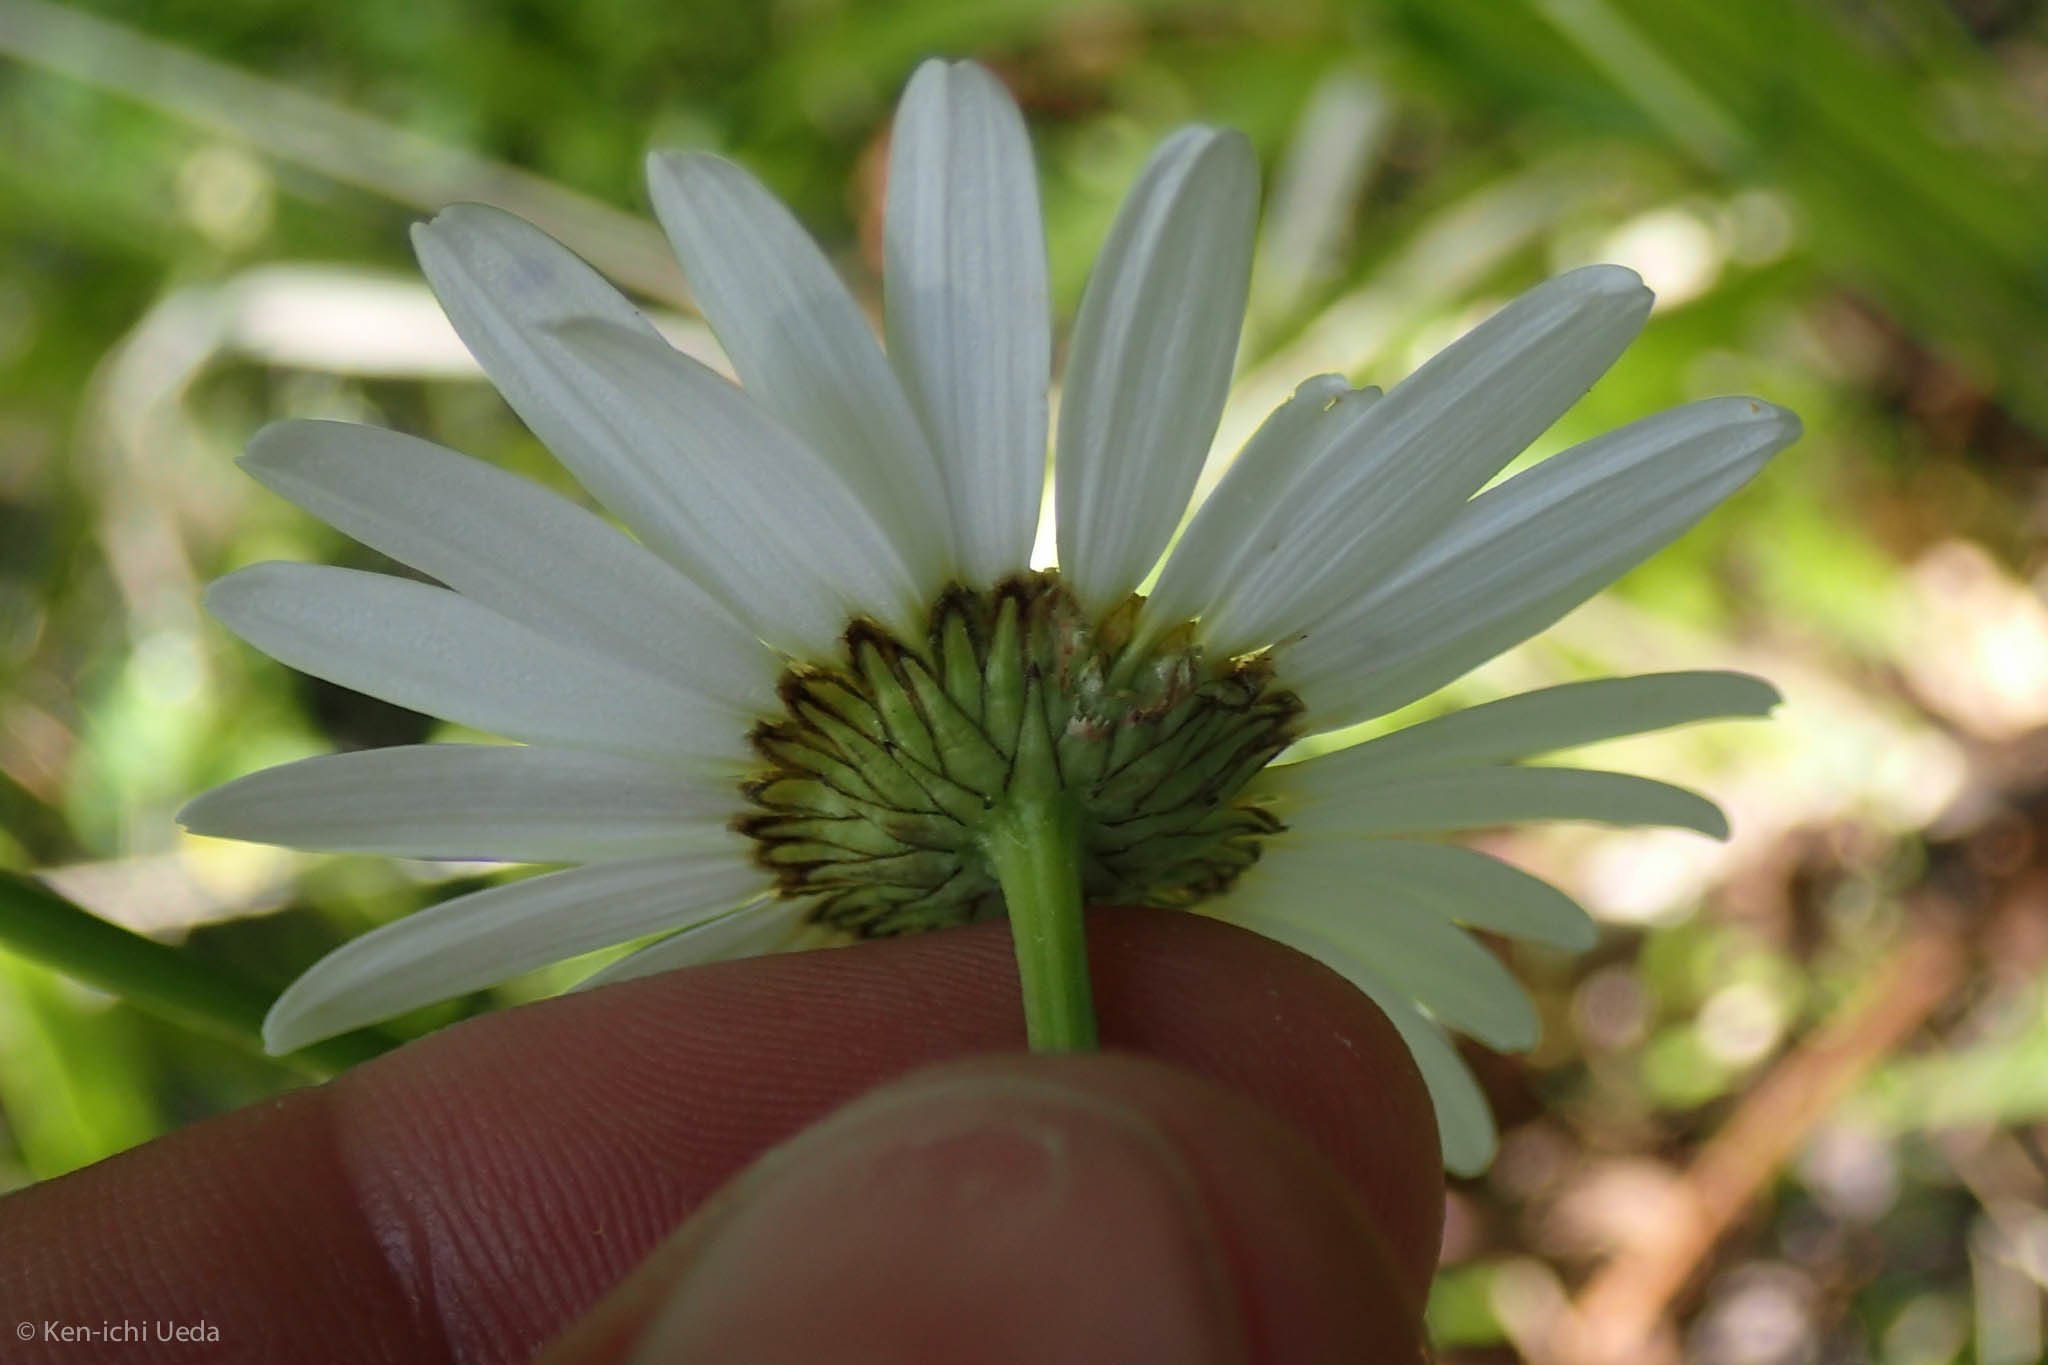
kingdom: Plantae
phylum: Tracheophyta
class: Magnoliopsida
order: Asterales
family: Asteraceae
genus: Leucanthemum
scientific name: Leucanthemum vulgare
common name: Oxeye daisy
